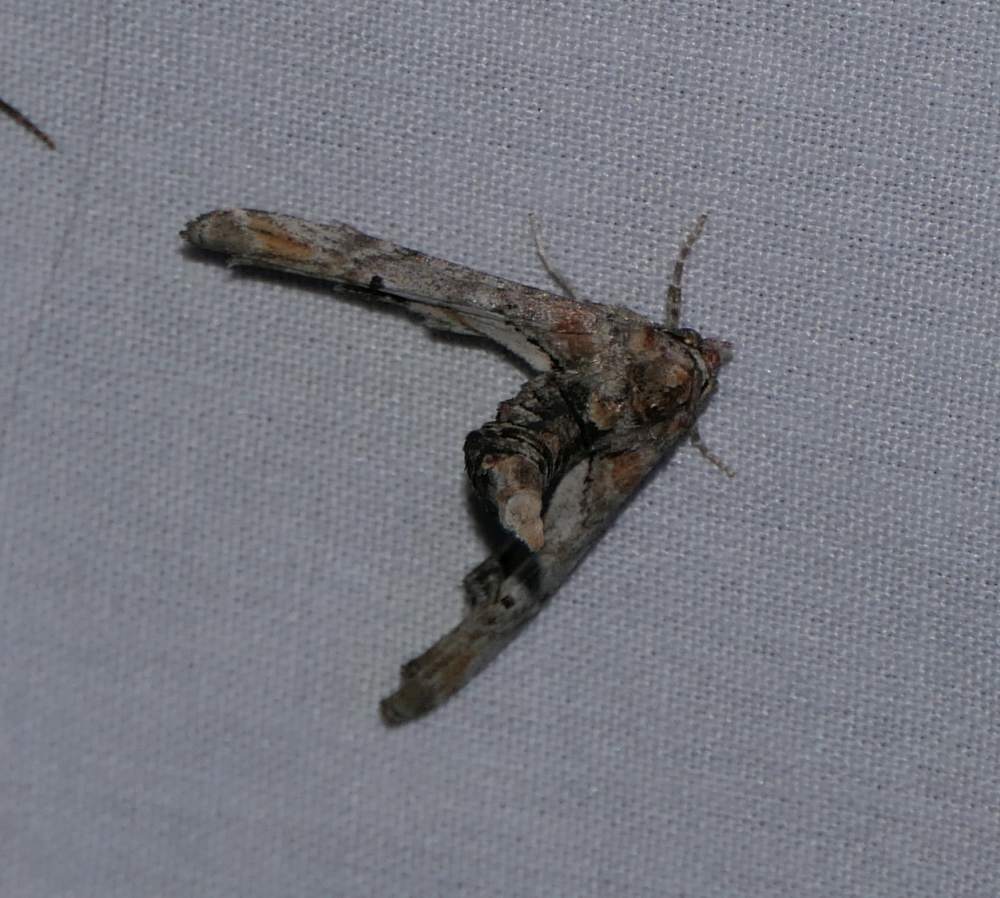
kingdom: Animalia
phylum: Arthropoda
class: Insecta
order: Lepidoptera
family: Euteliidae
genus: Marathyssa
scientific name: Marathyssa inficita
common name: Dark marathyssa moth
